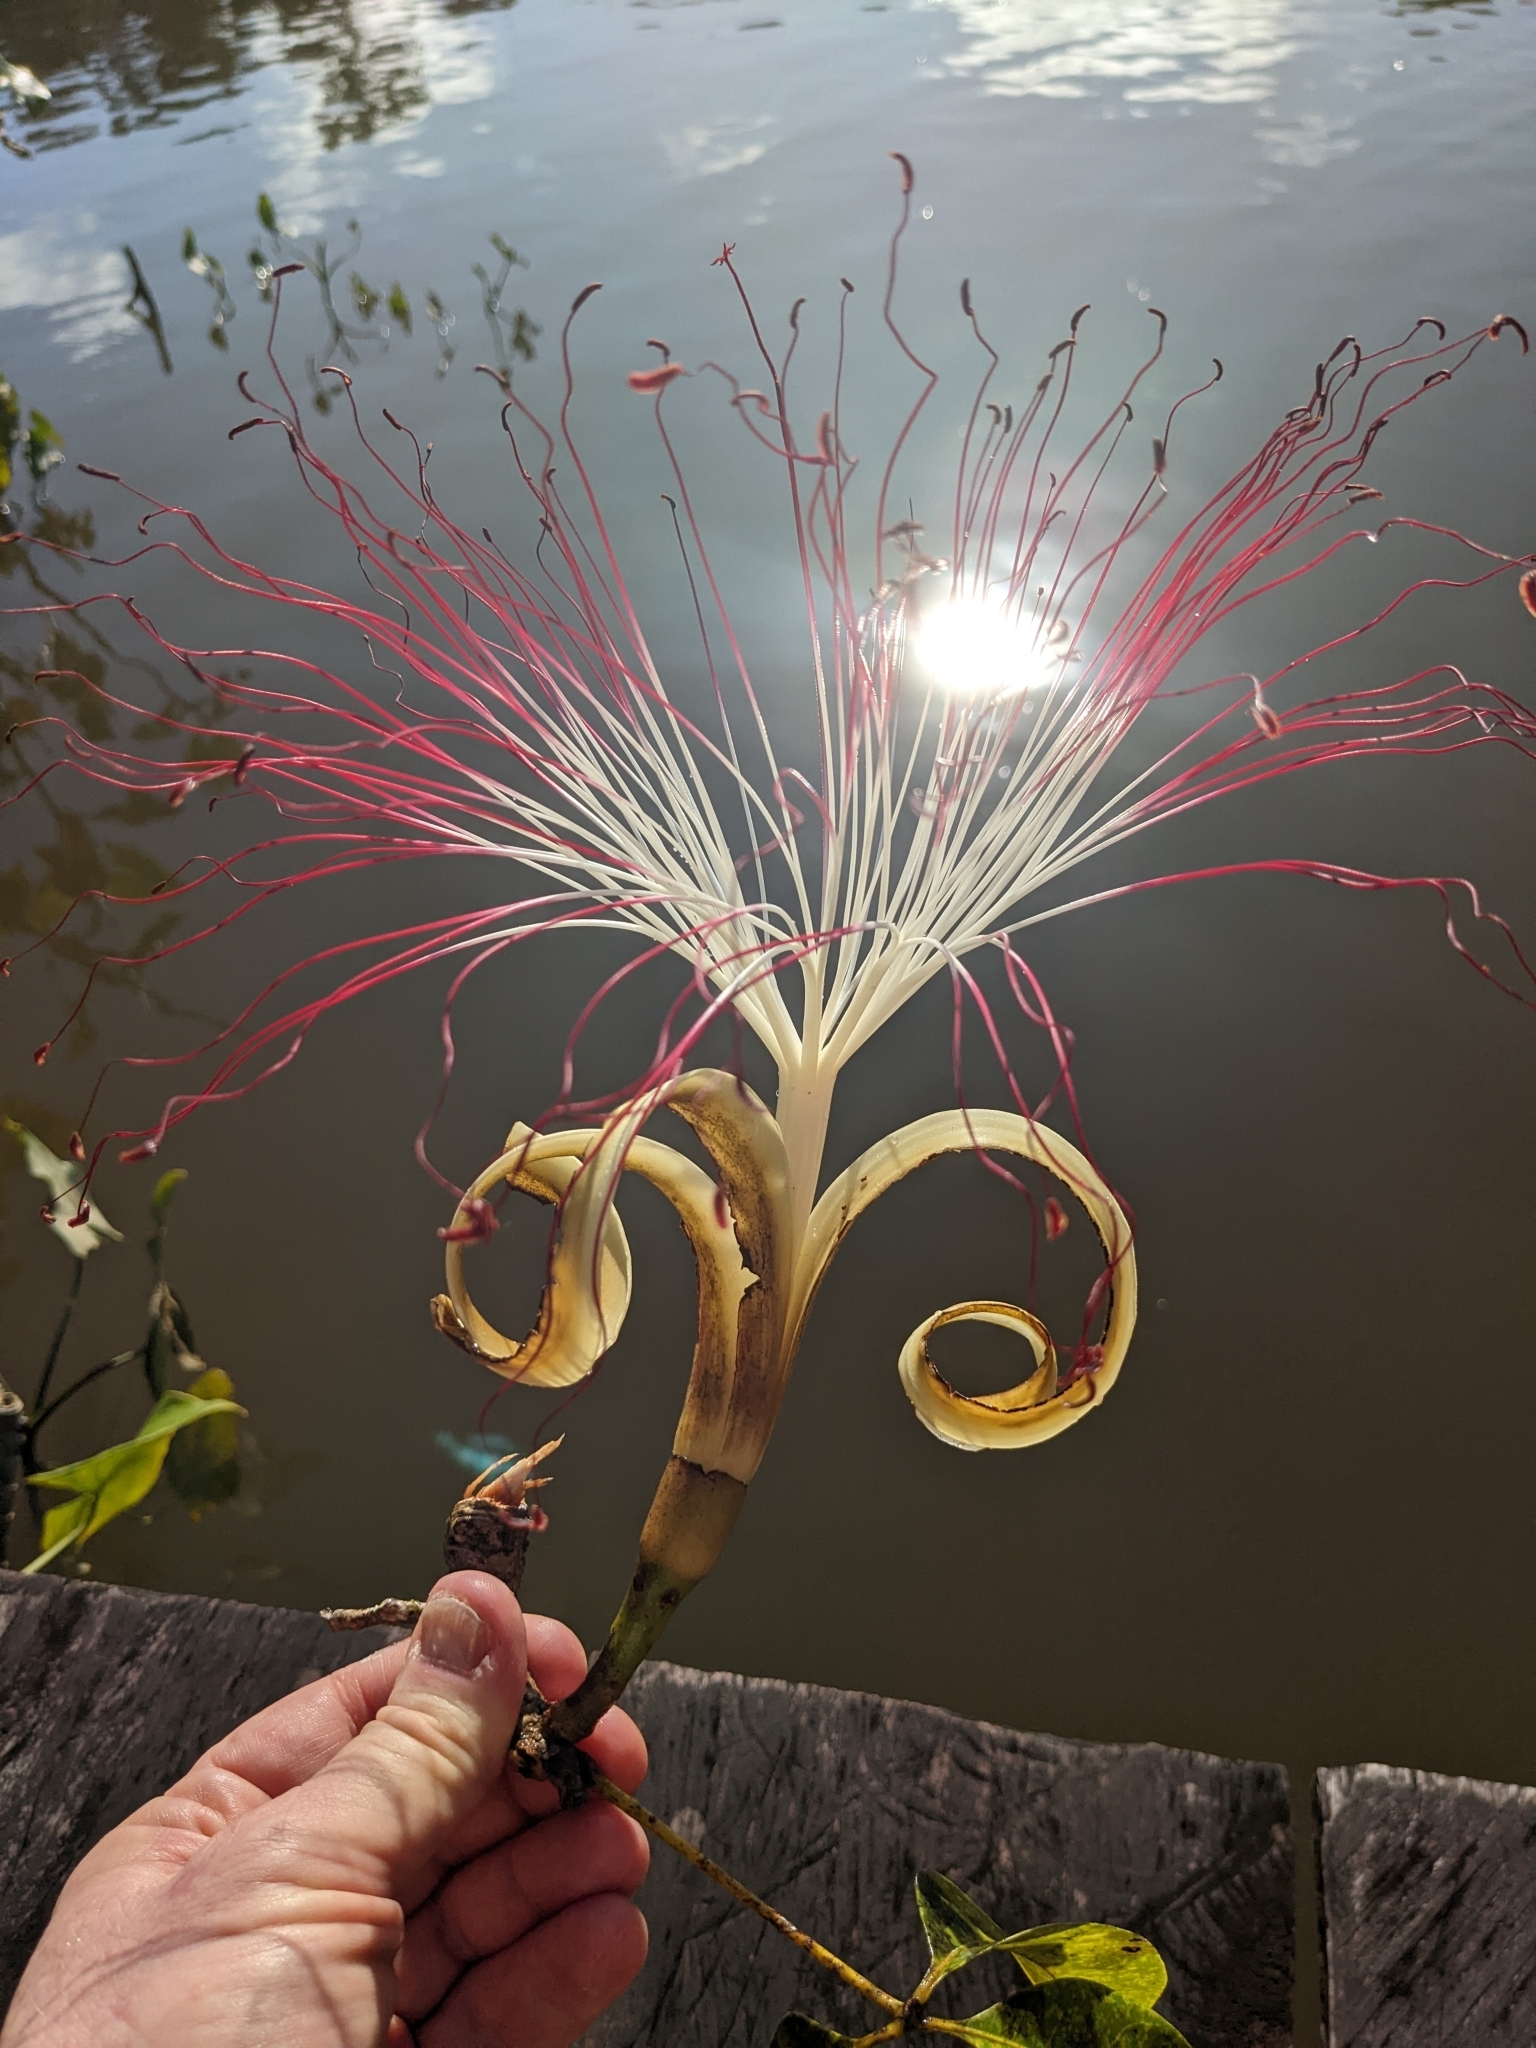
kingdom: Plantae
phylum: Tracheophyta
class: Magnoliopsida
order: Malvales
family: Malvaceae
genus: Pachira
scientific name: Pachira aquatica
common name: Provision-tree
